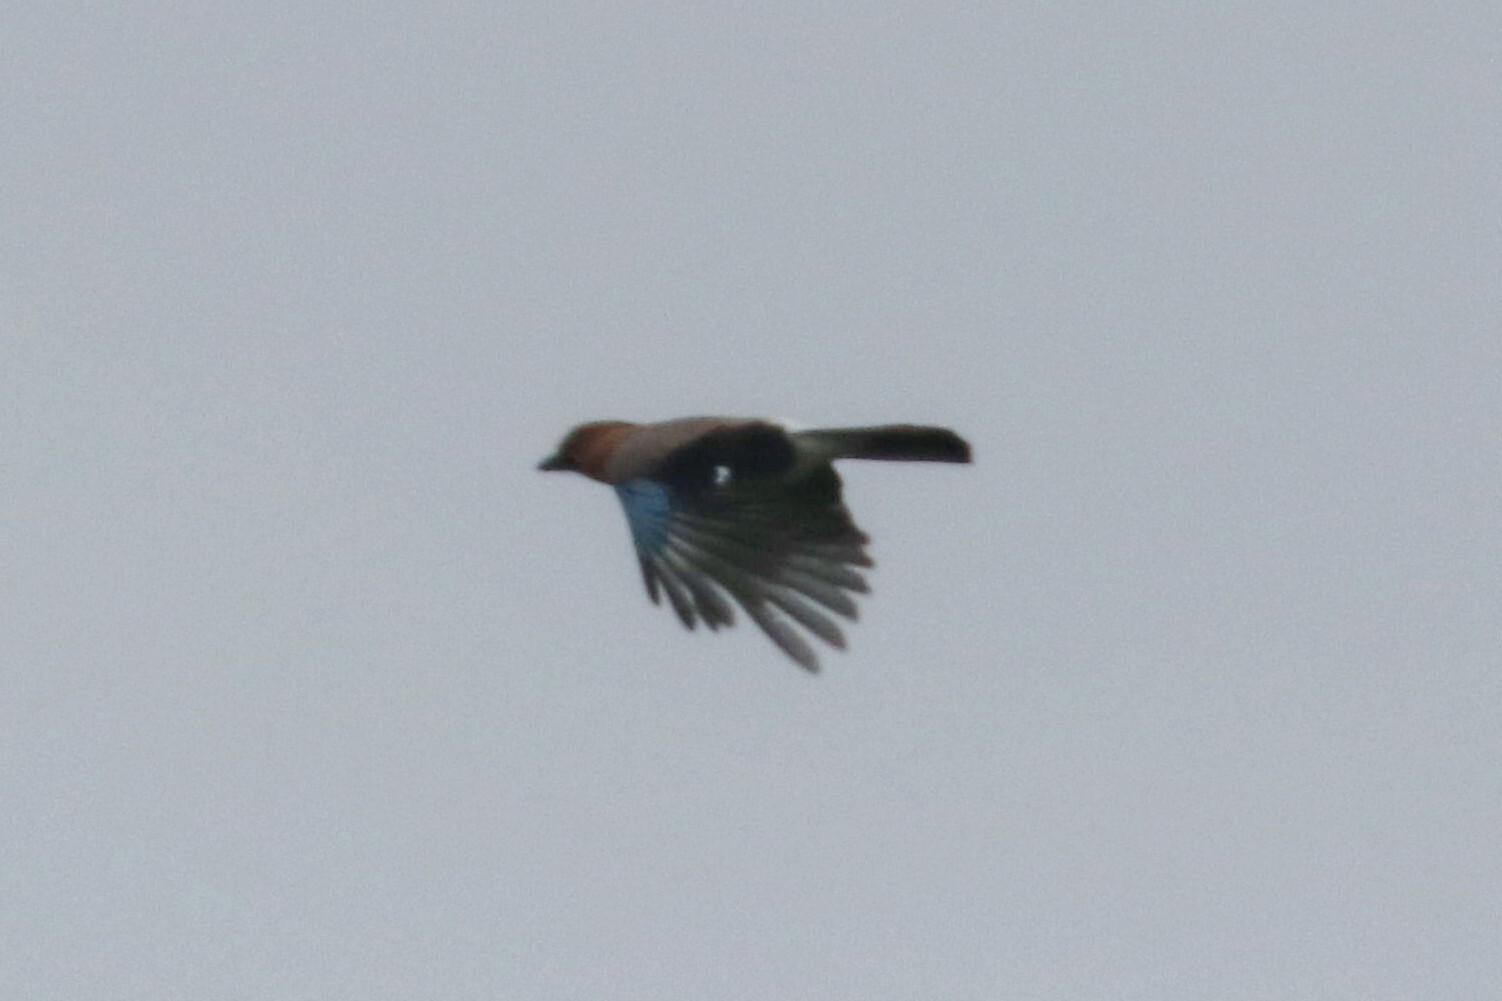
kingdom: Animalia
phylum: Chordata
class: Aves
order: Passeriformes
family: Corvidae
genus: Garrulus
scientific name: Garrulus glandarius
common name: Eurasian jay
